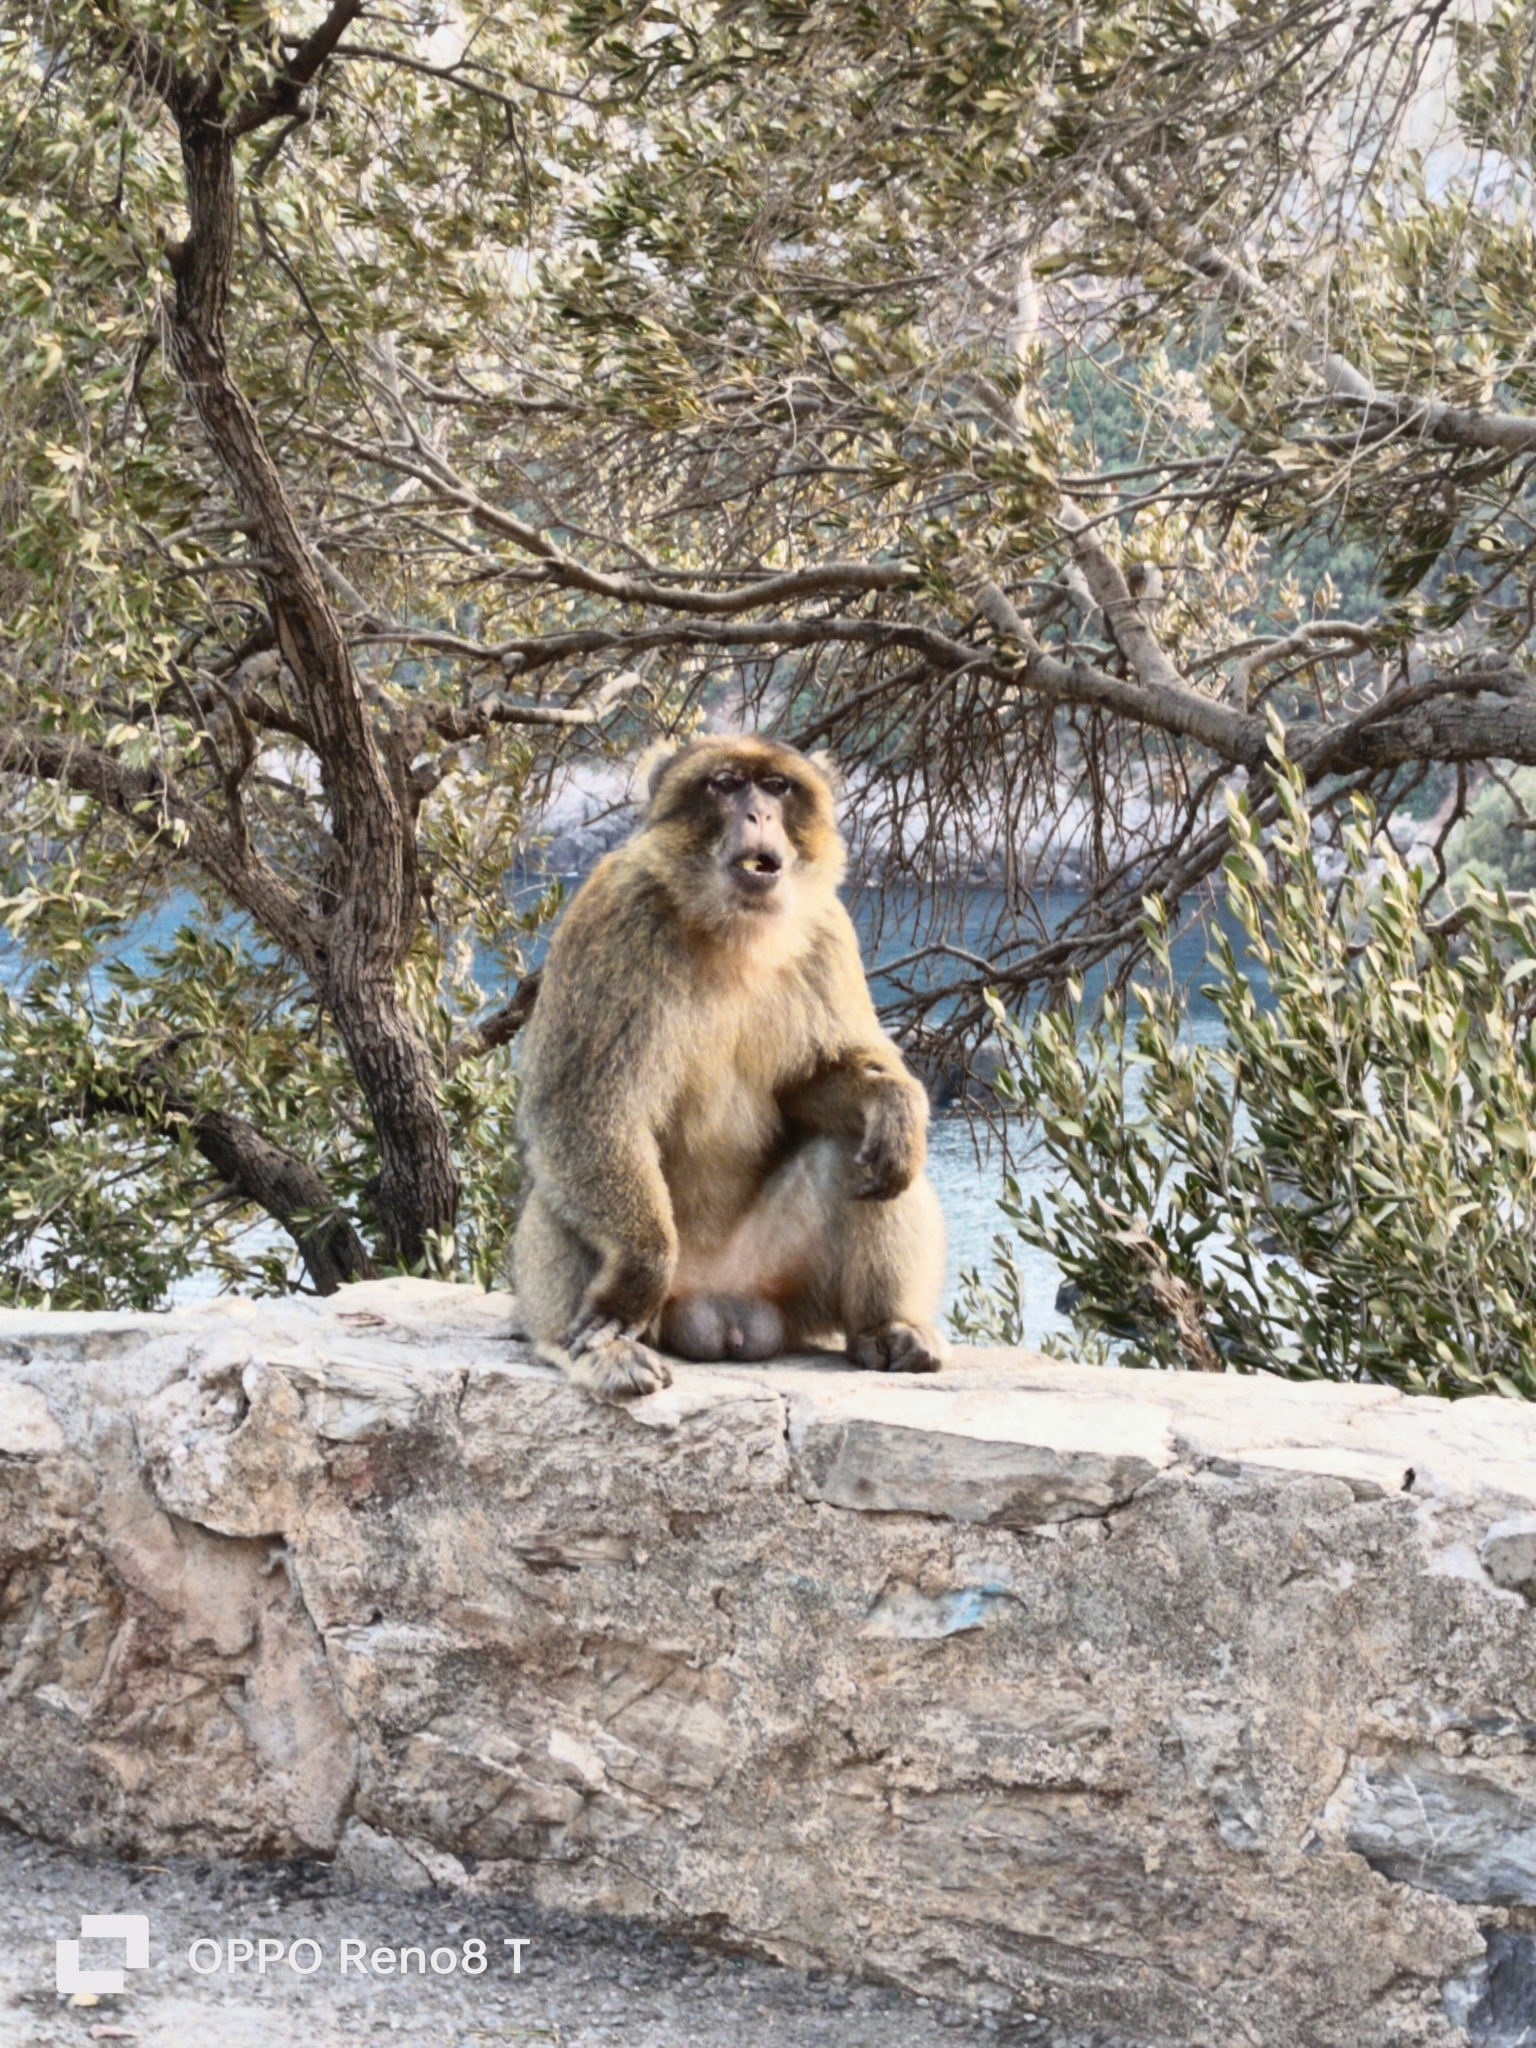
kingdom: Animalia
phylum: Chordata
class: Mammalia
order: Primates
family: Cercopithecidae
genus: Macaca
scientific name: Macaca sylvanus
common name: Barbary macaque
